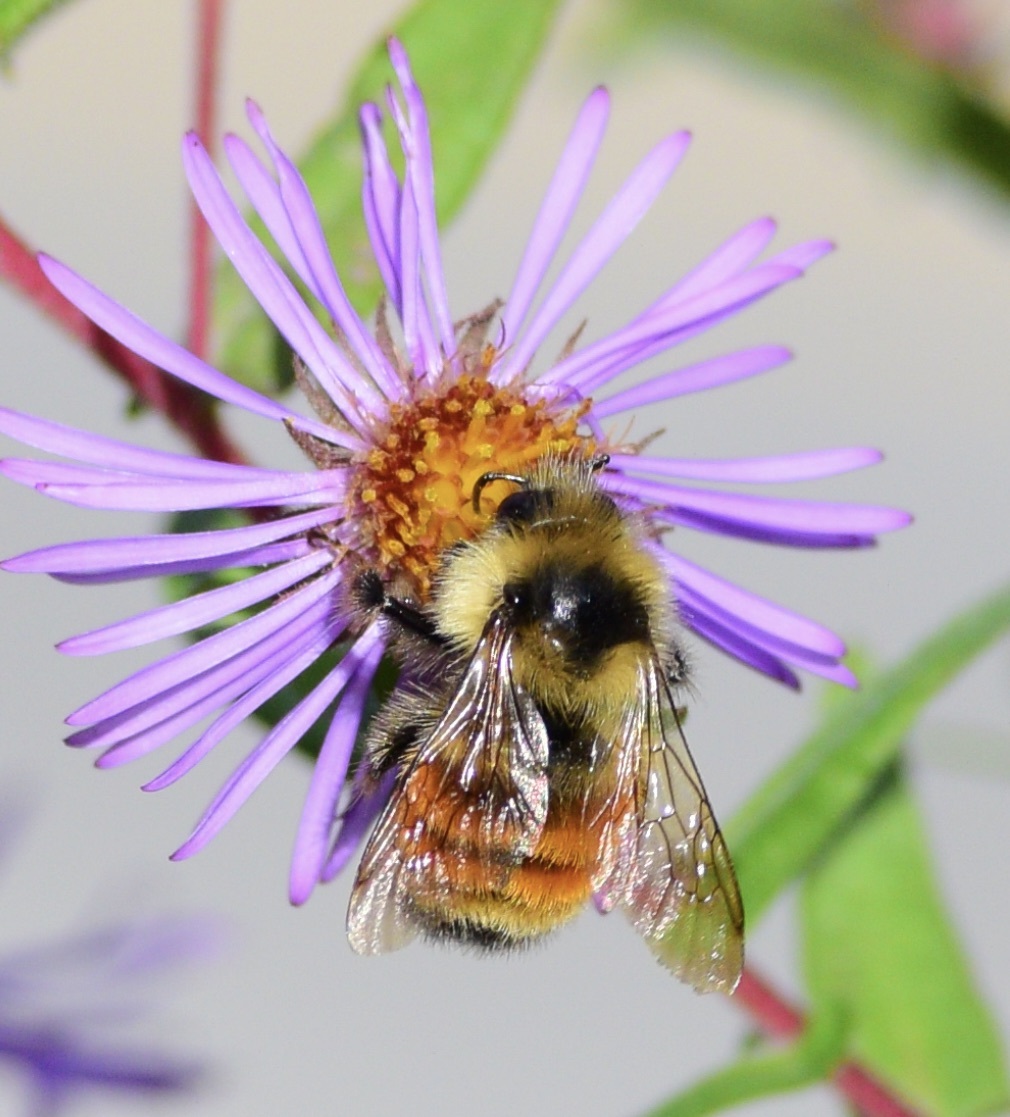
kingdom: Animalia
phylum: Arthropoda
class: Insecta
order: Hymenoptera
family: Apidae
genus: Bombus
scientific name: Bombus ternarius
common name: Tri-colored bumble bee
